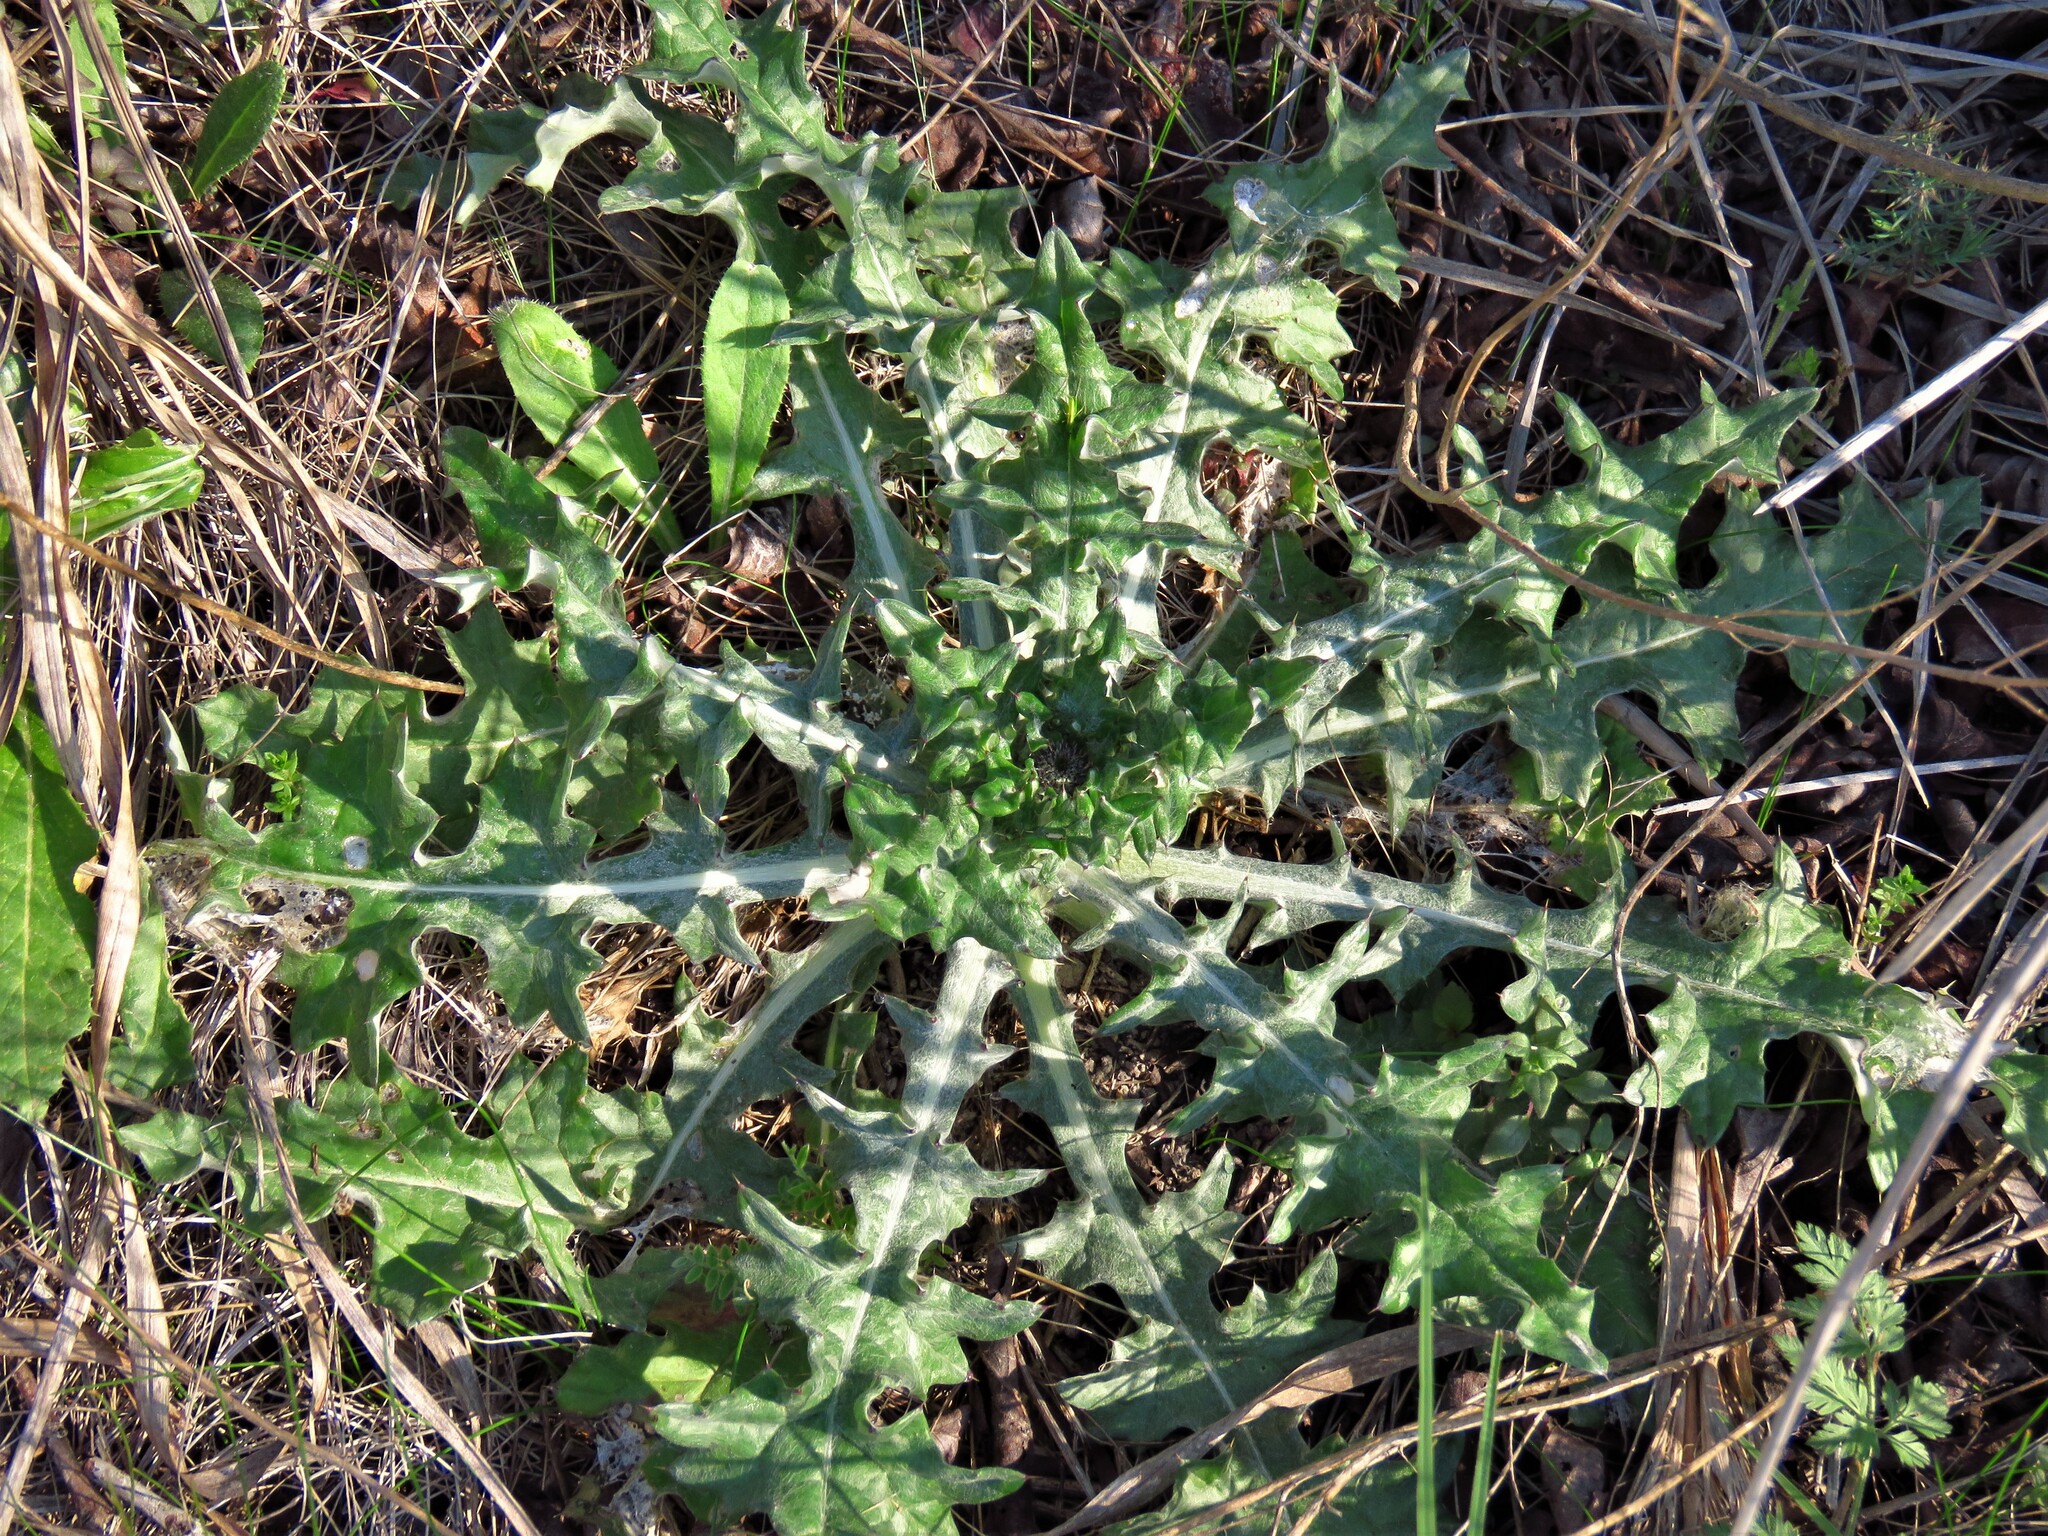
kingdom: Plantae
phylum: Tracheophyta
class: Magnoliopsida
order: Asterales
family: Asteraceae
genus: Cirsium
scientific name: Cirsium texanum
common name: Texas purple thistle
